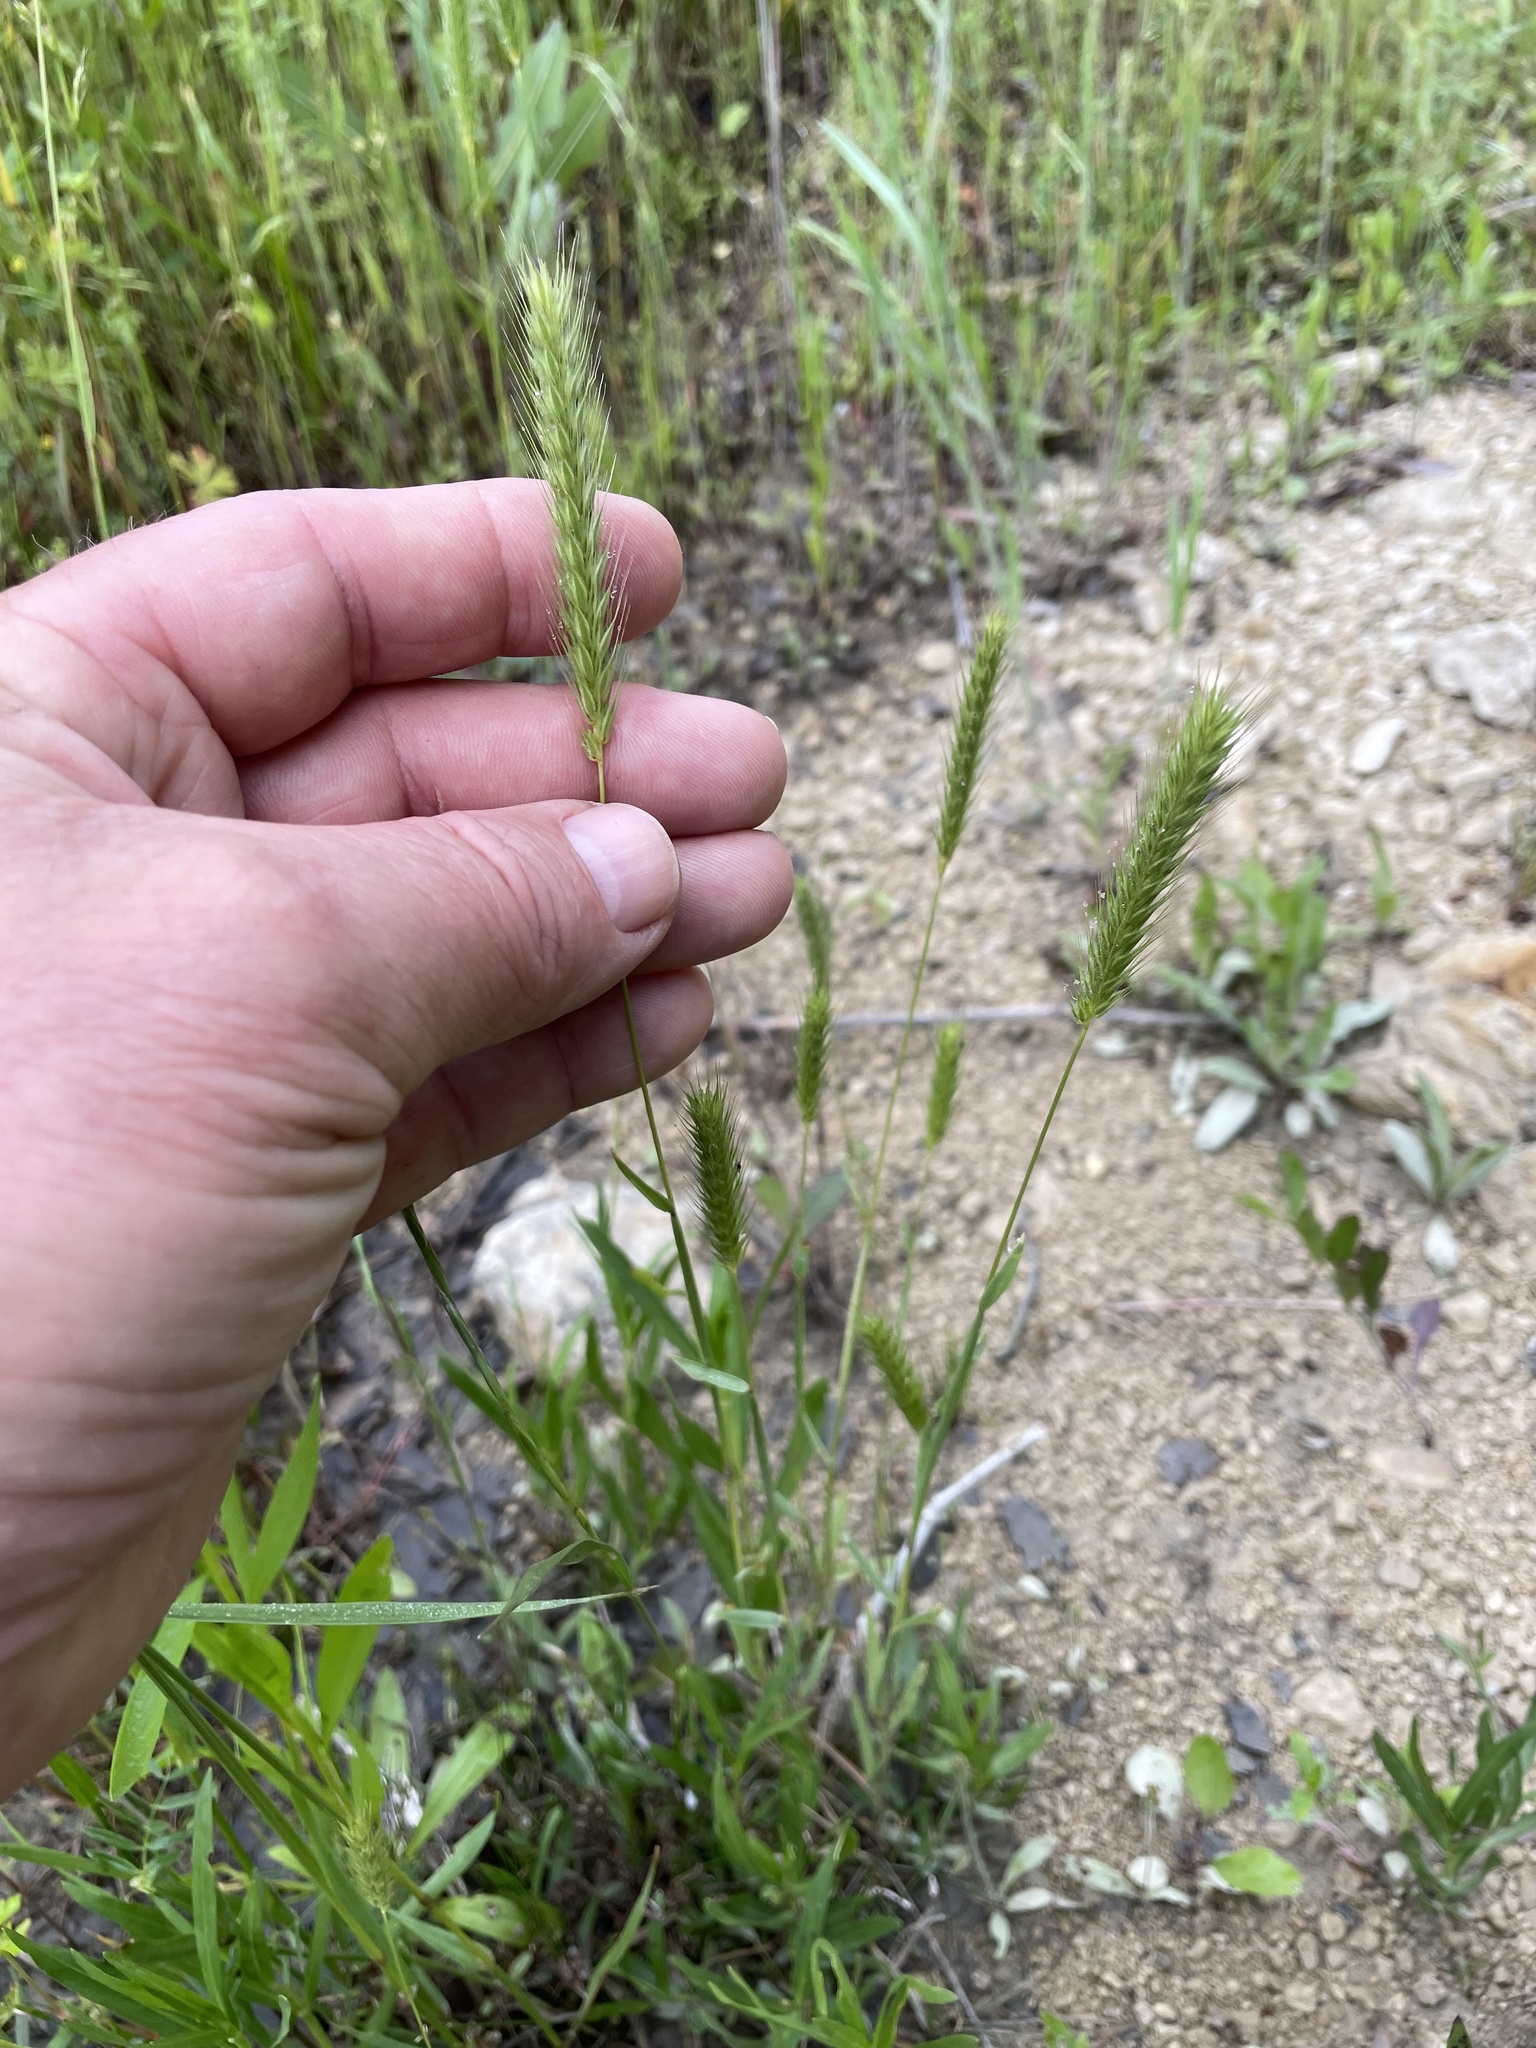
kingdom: Plantae
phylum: Tracheophyta
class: Liliopsida
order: Poales
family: Poaceae
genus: Hordeum
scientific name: Hordeum pusillum
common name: Little barley
